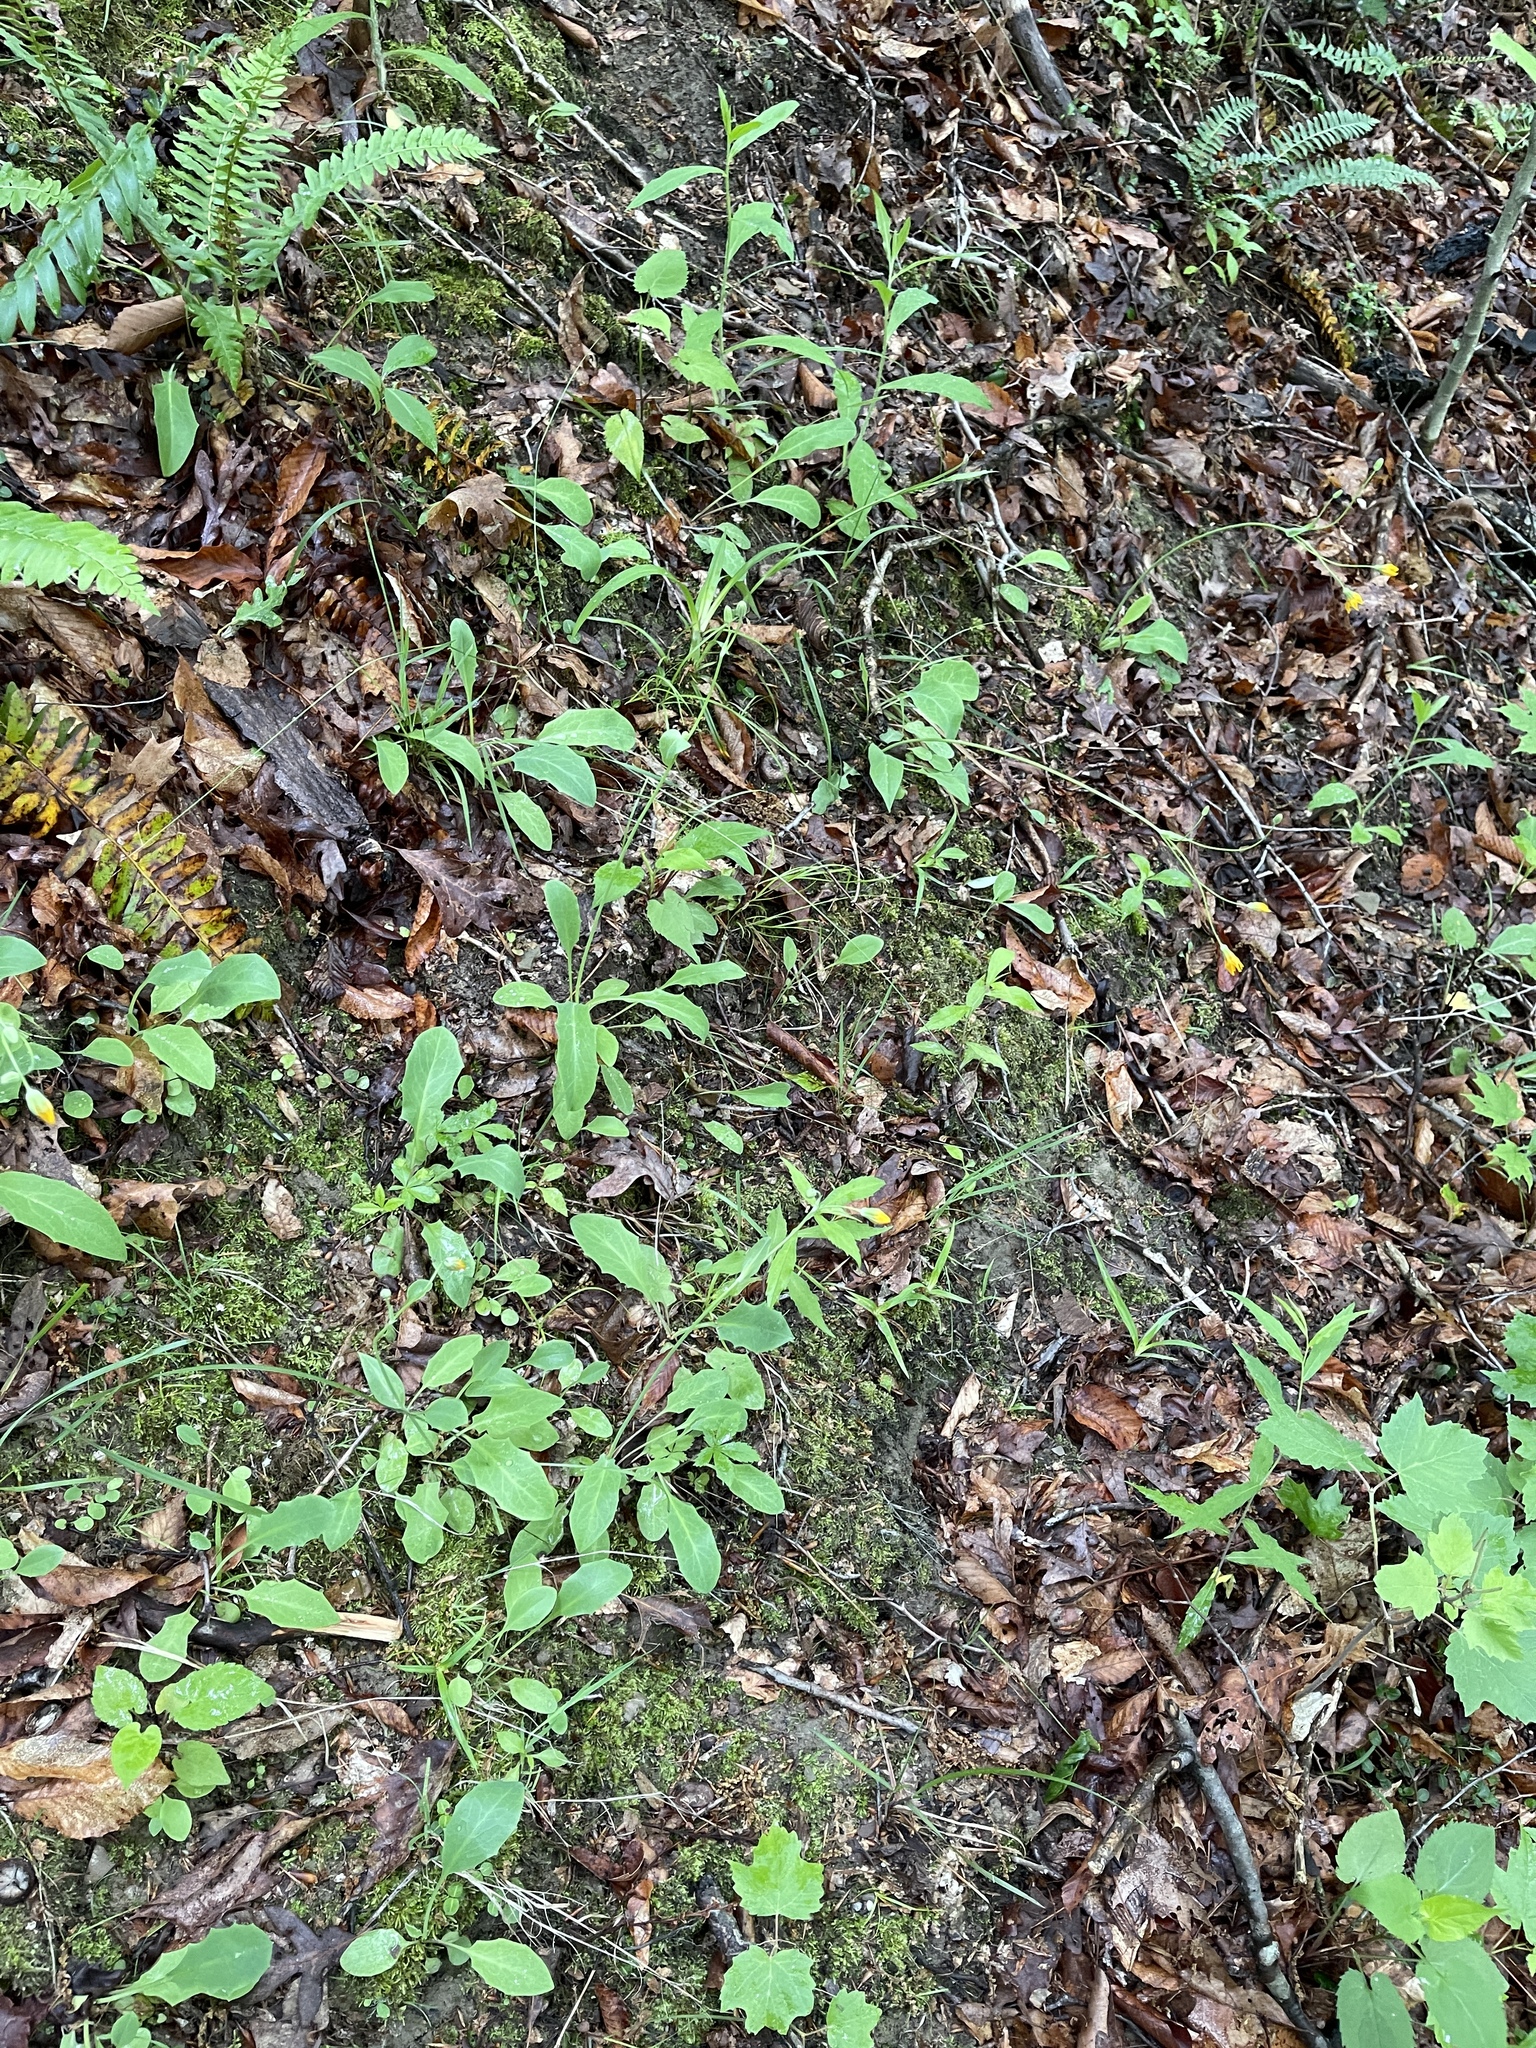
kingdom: Plantae
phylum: Tracheophyta
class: Magnoliopsida
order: Asterales
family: Asteraceae
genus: Krigia
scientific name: Krigia biflora
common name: Orange dwarf-dandelion
